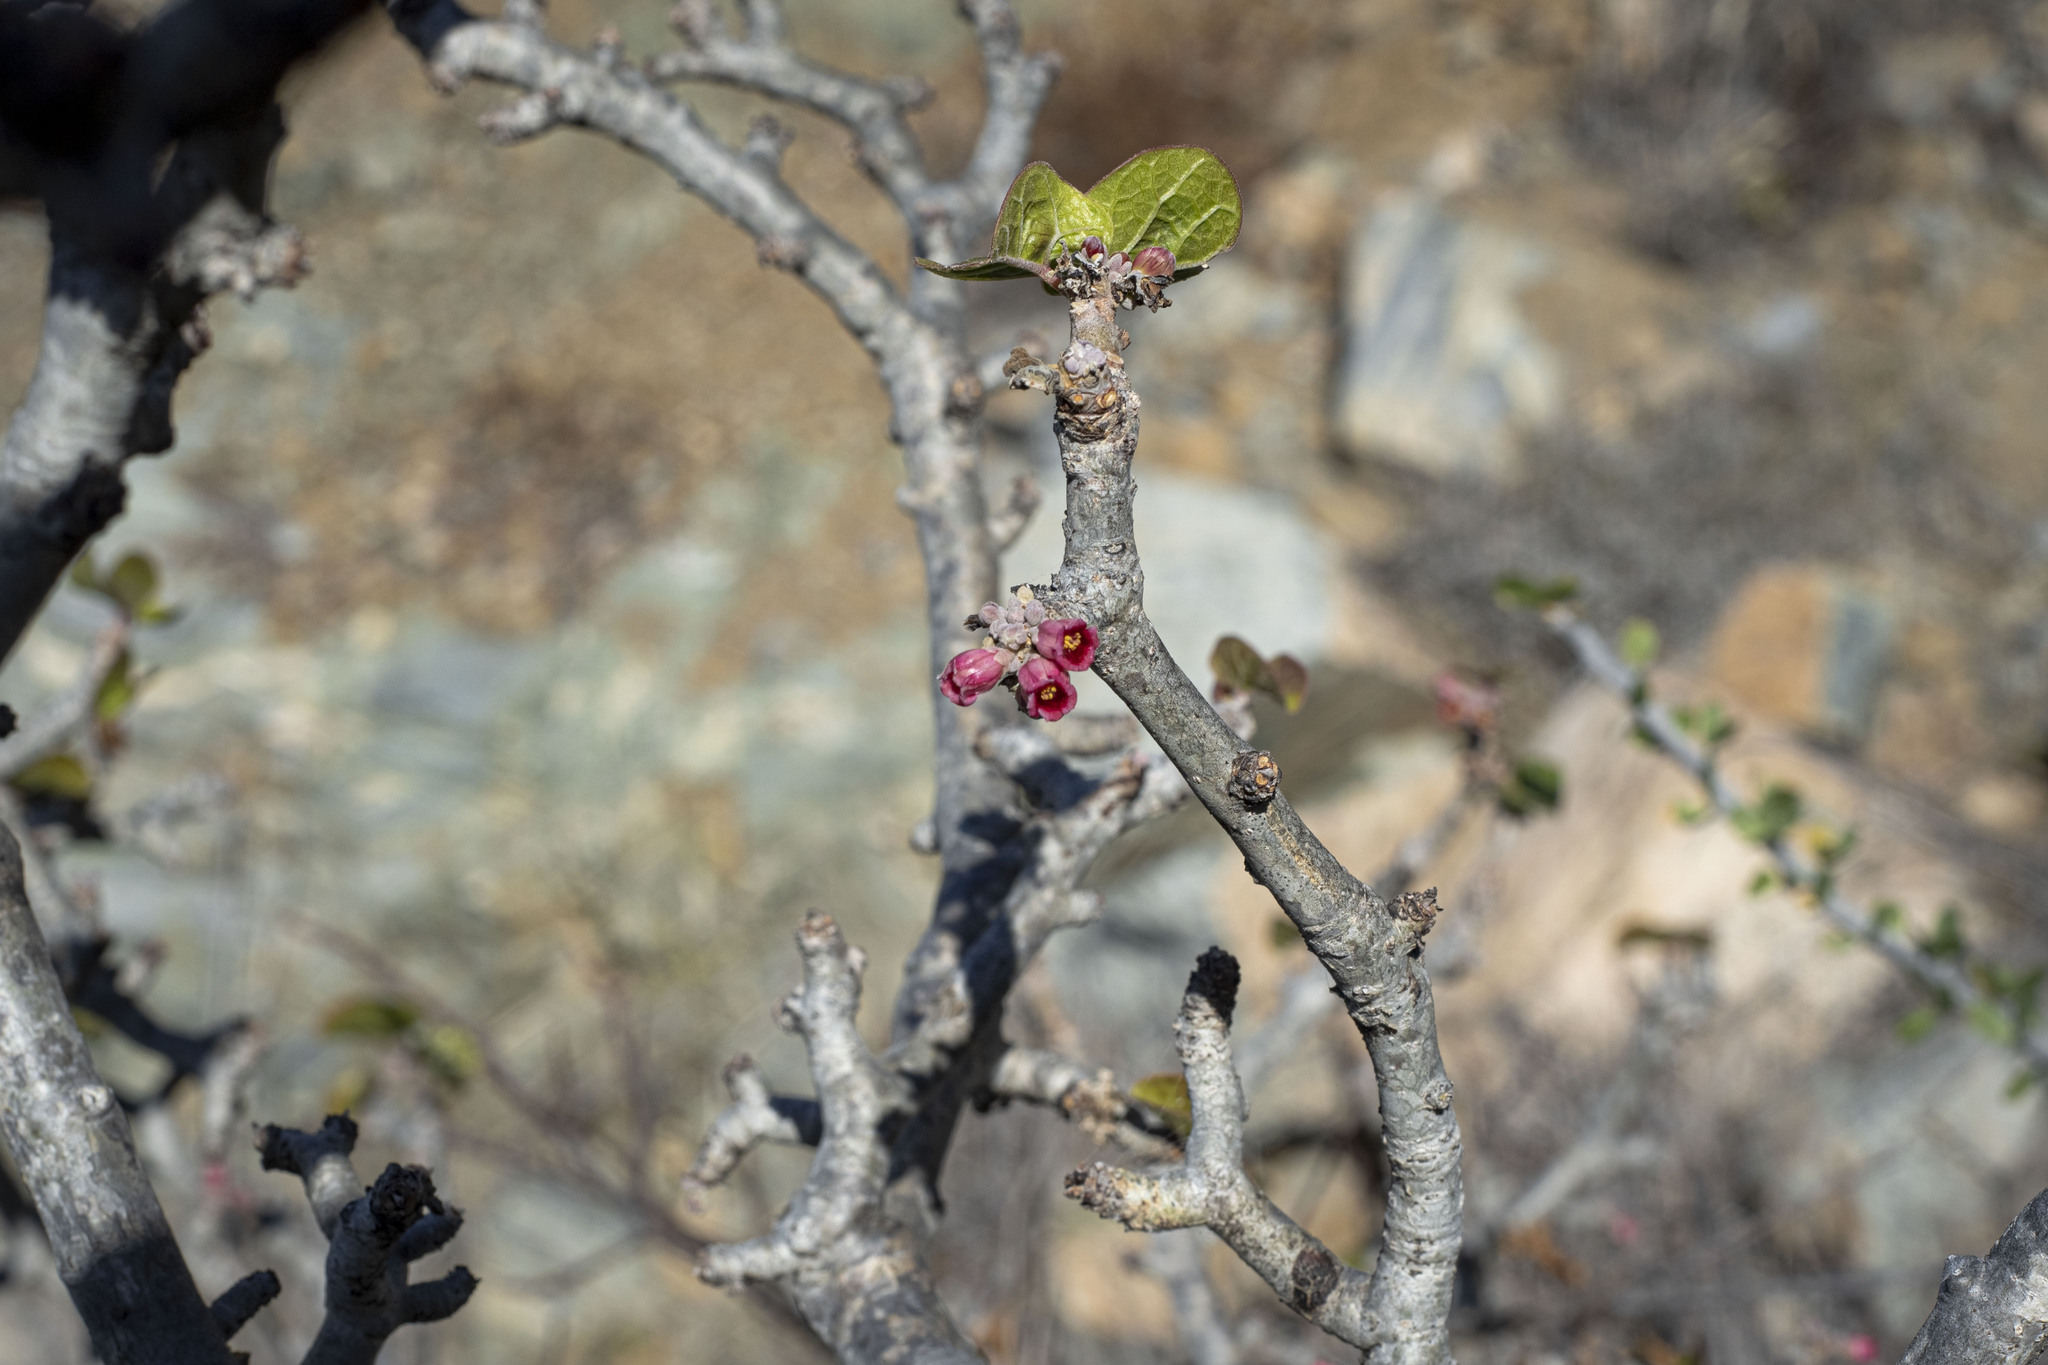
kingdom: Plantae
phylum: Tracheophyta
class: Magnoliopsida
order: Malpighiales
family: Euphorbiaceae
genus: Jatropha
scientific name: Jatropha cinerea
